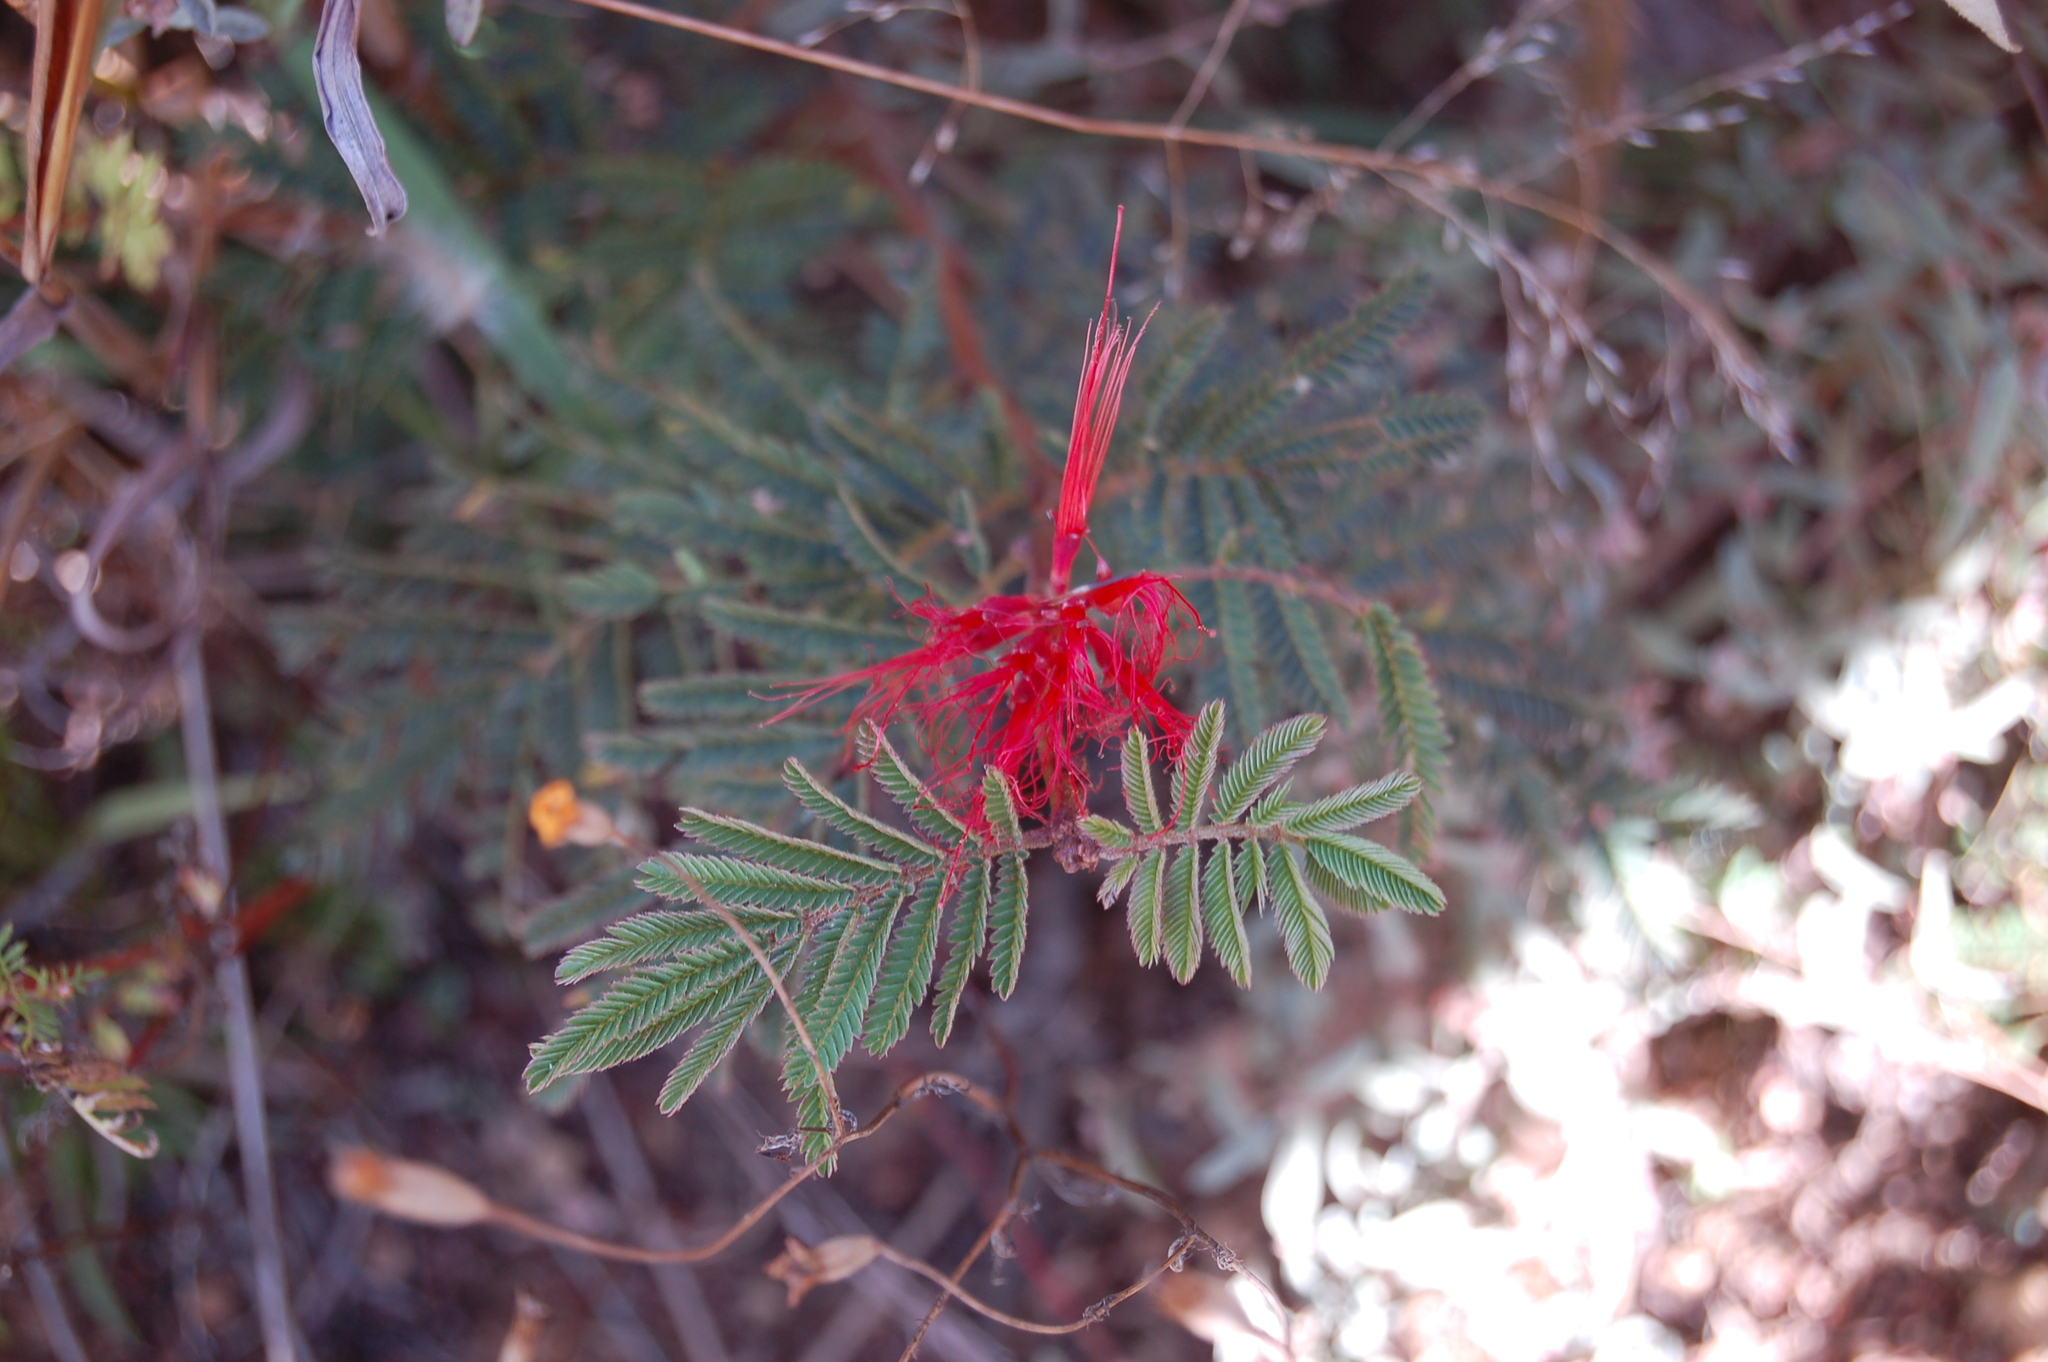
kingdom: Plantae
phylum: Tracheophyta
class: Magnoliopsida
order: Fabales
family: Fabaceae
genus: Calliandra
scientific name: Calliandra hirsuta
